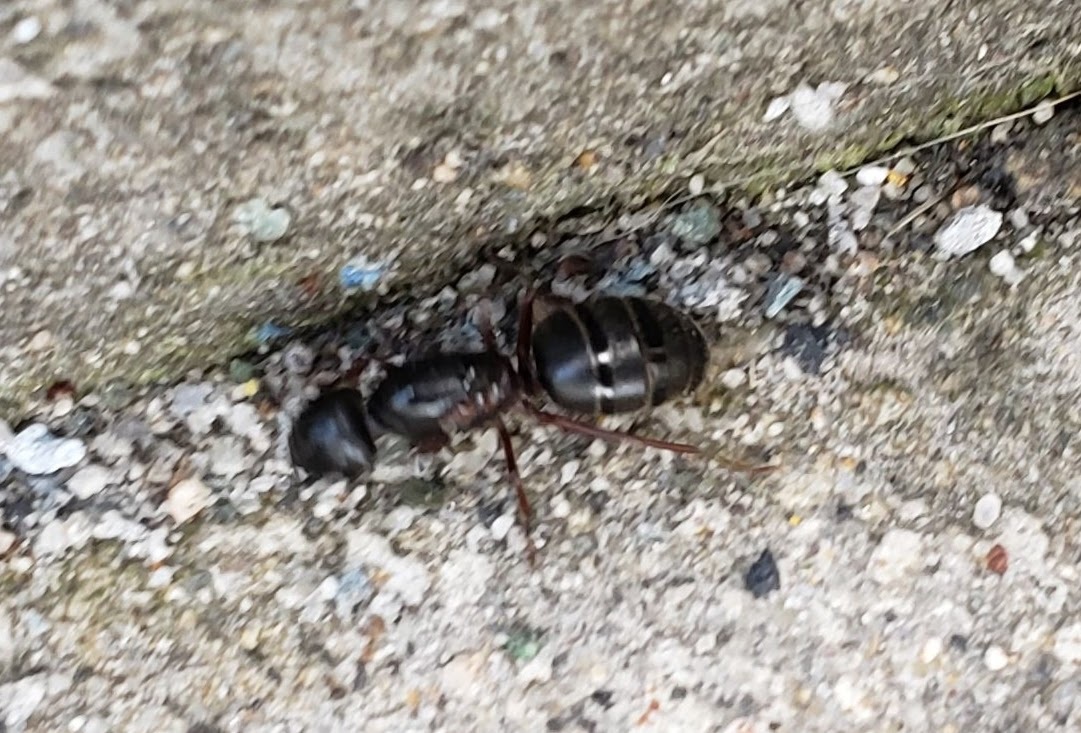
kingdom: Animalia
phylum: Arthropoda
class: Insecta
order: Hymenoptera
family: Formicidae
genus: Camponotus
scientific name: Camponotus herculeanus
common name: Hercules ant
